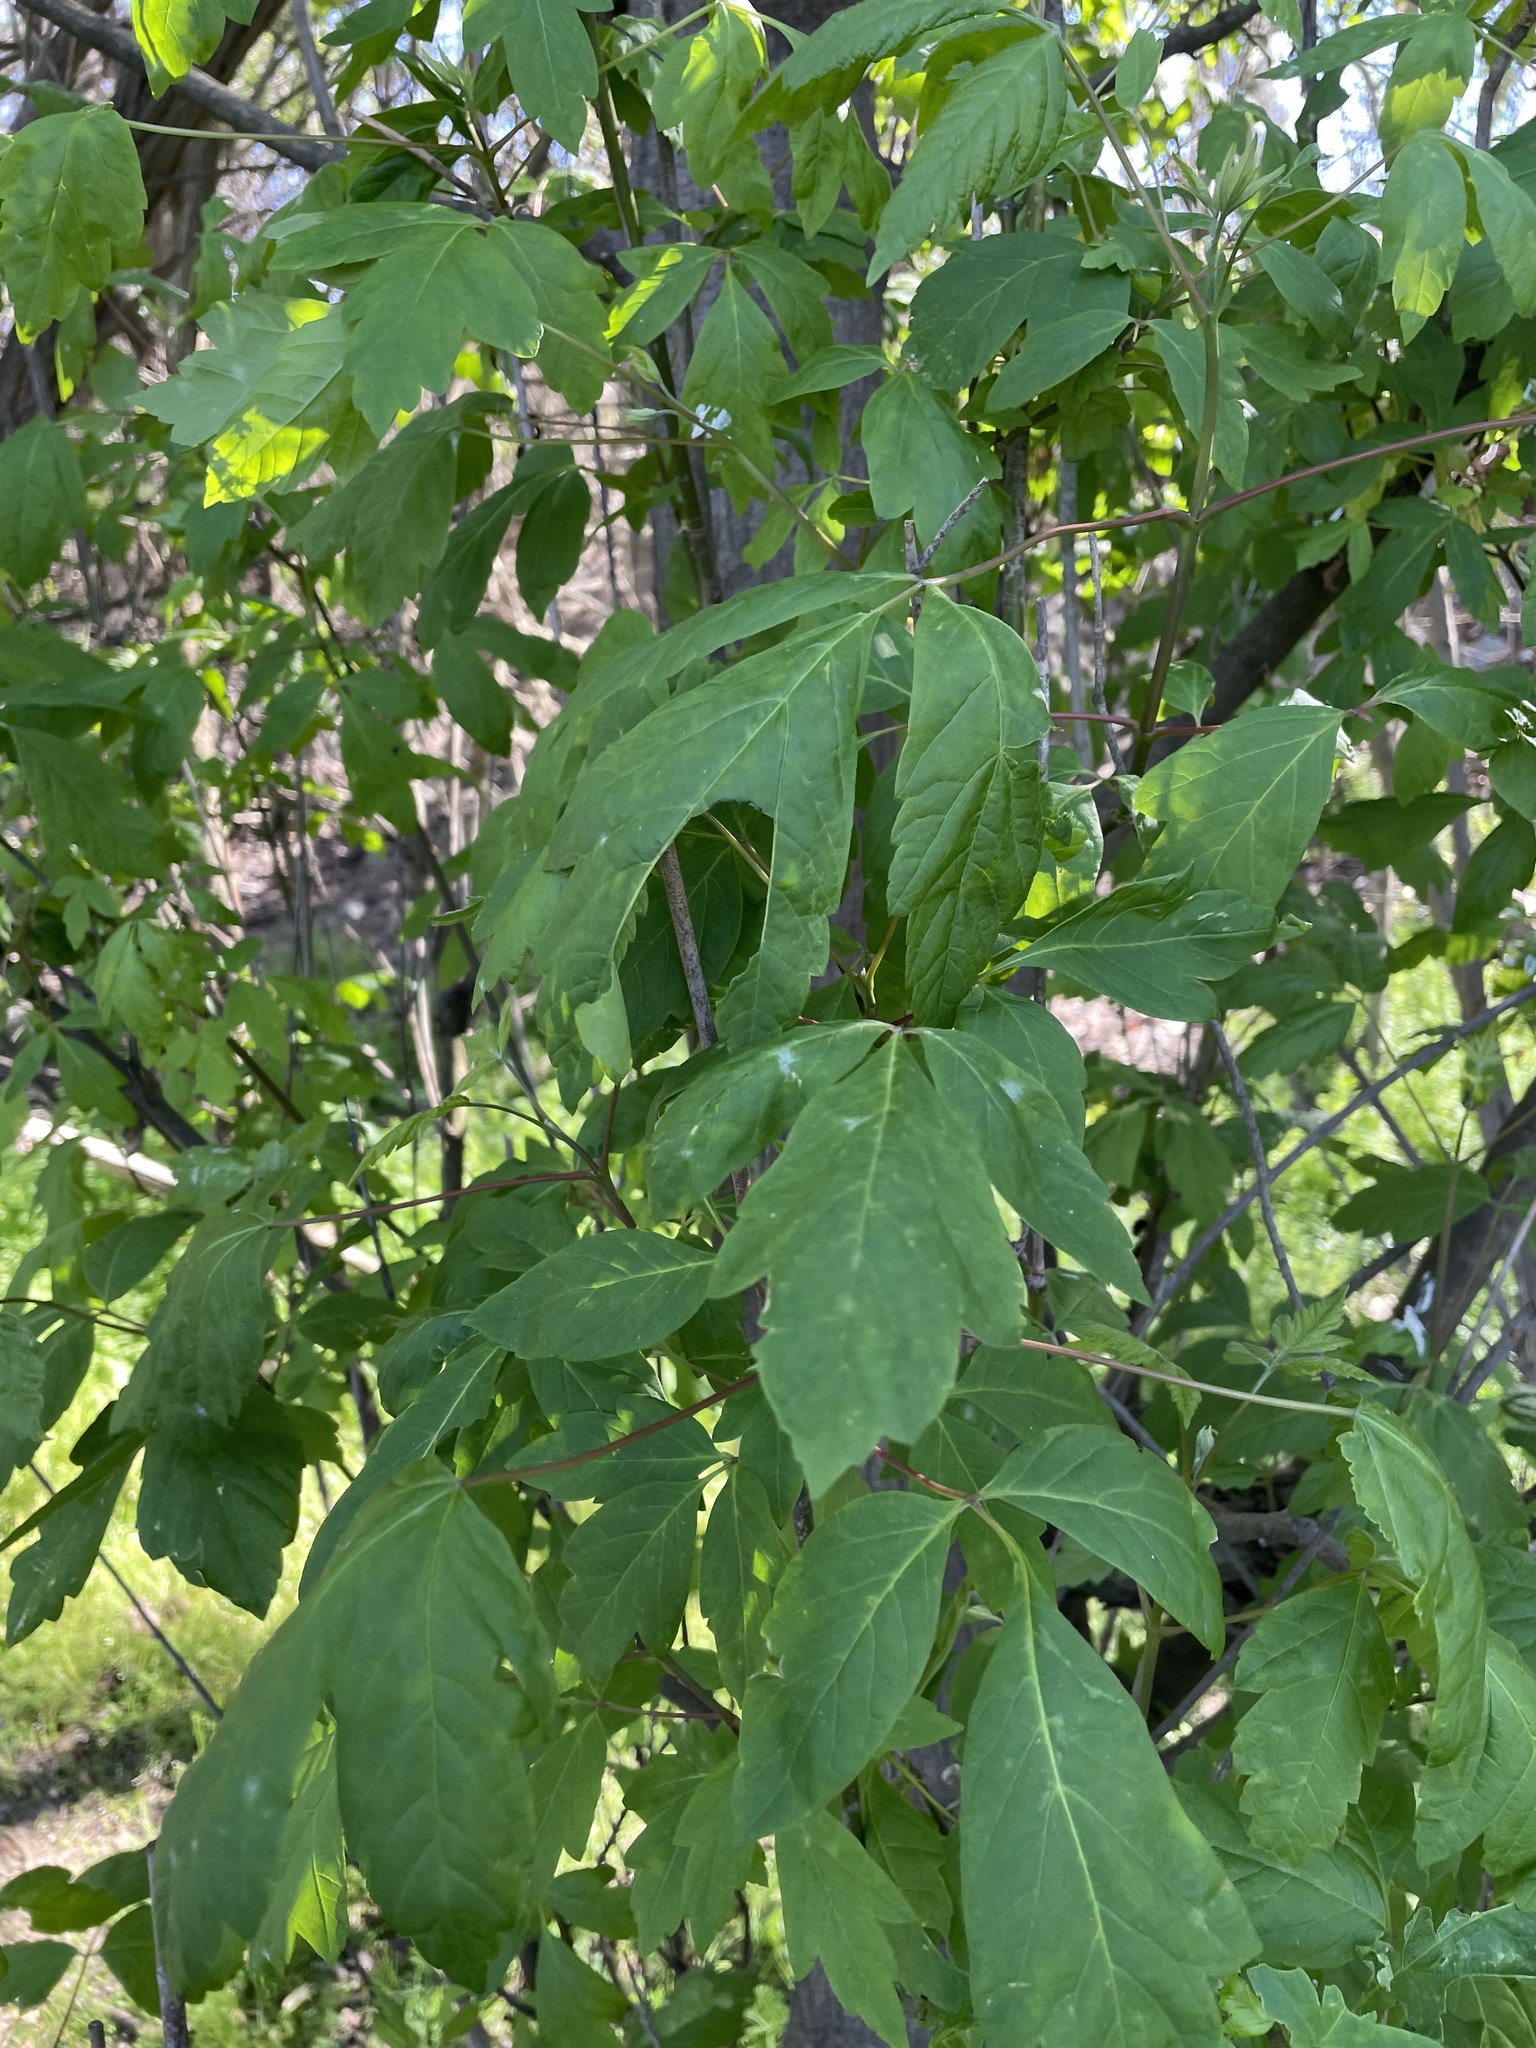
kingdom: Plantae
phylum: Tracheophyta
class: Magnoliopsida
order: Sapindales
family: Sapindaceae
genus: Acer
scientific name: Acer negundo
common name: Ashleaf maple
